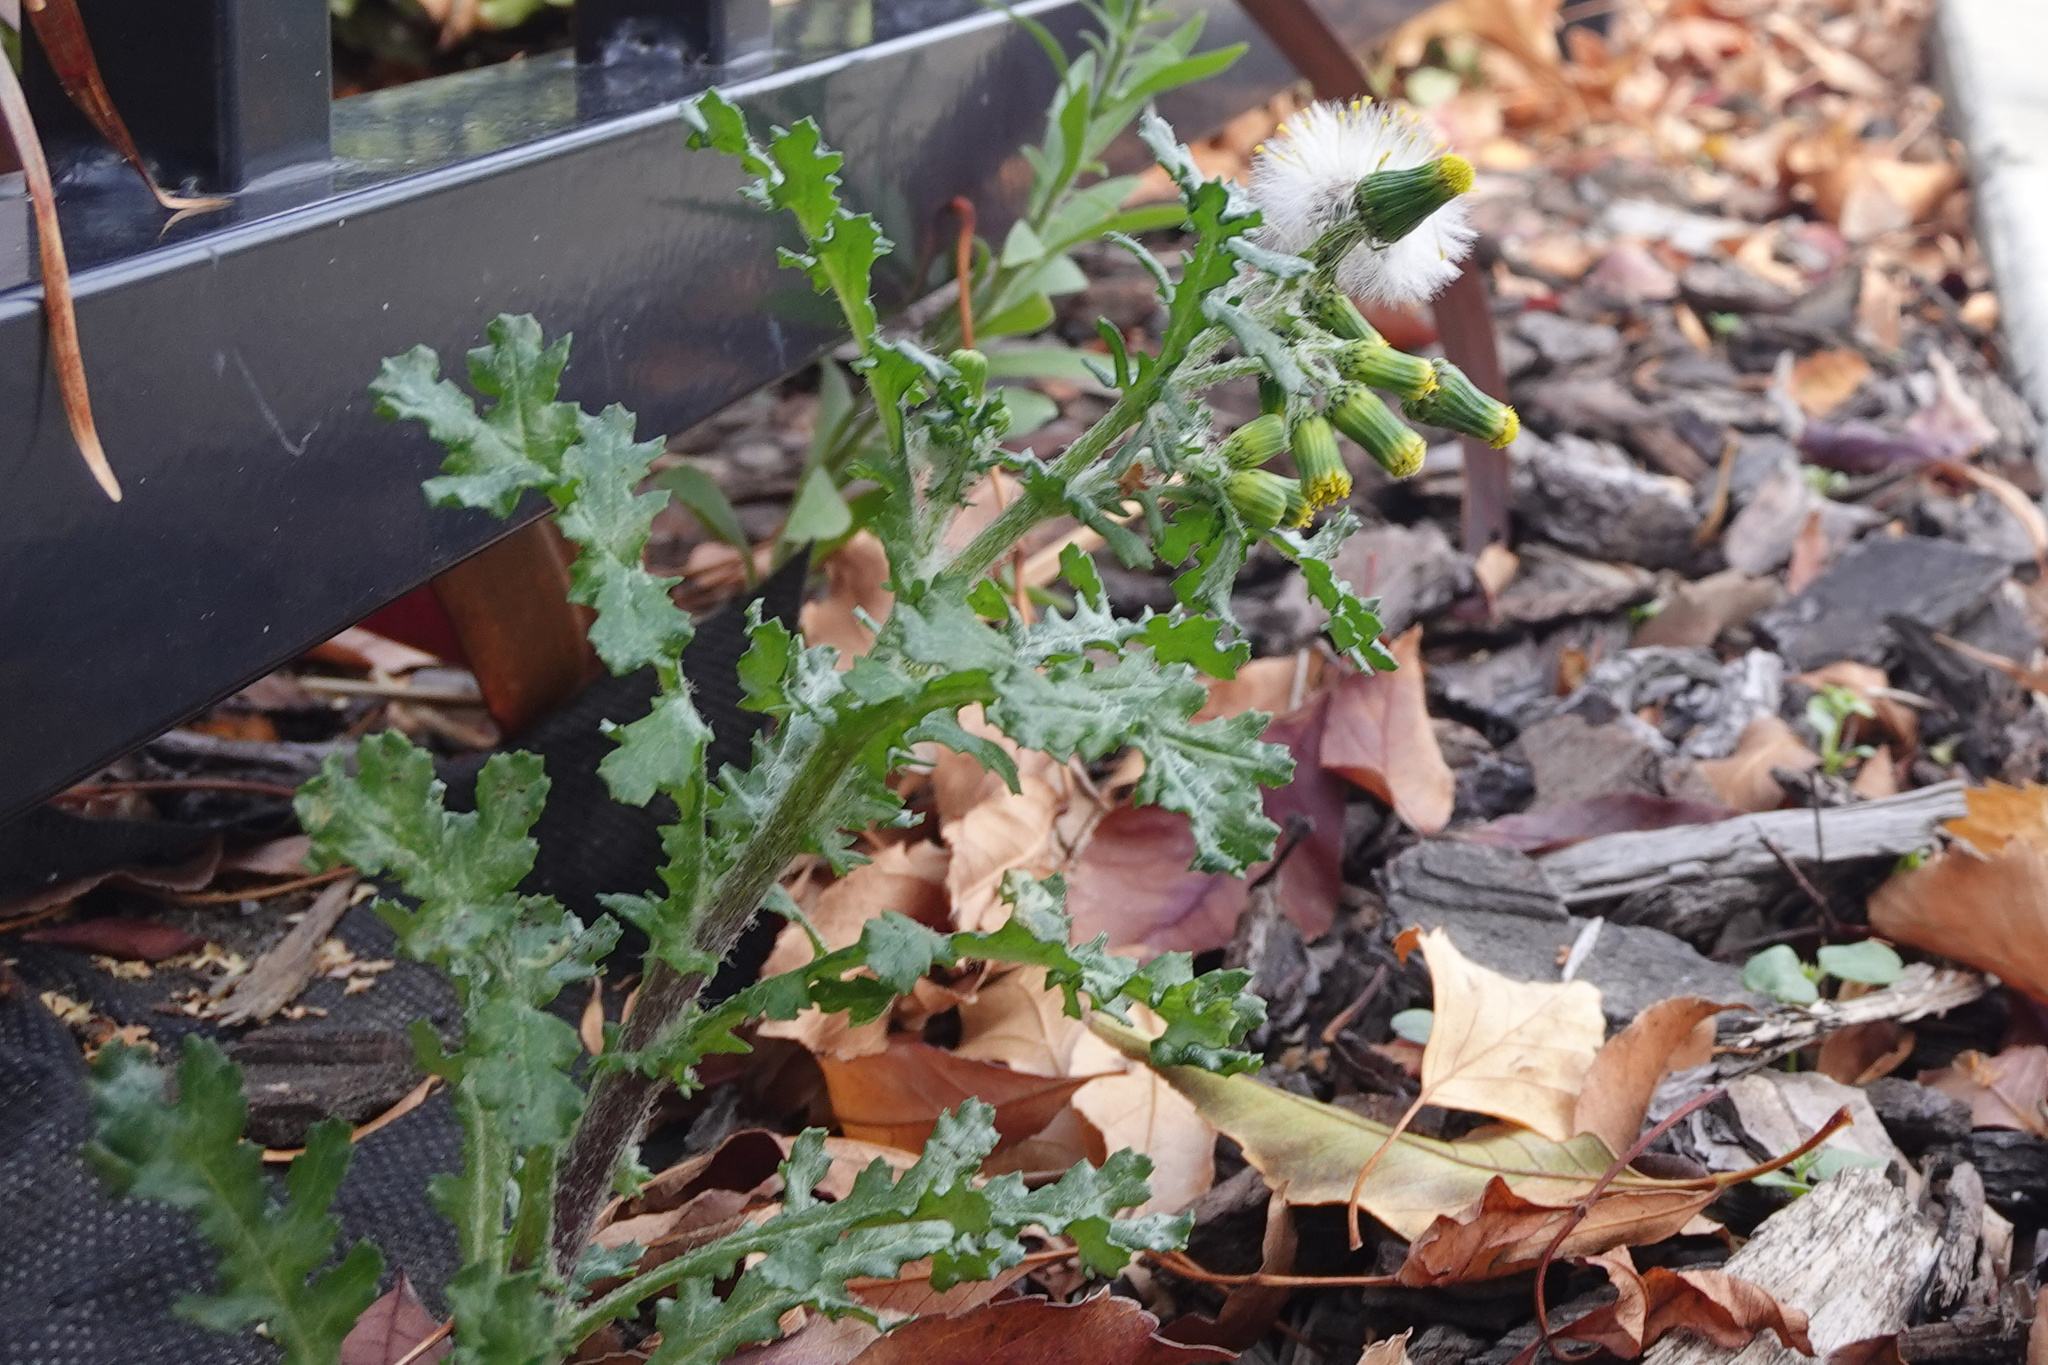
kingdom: Plantae
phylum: Tracheophyta
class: Magnoliopsida
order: Asterales
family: Asteraceae
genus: Senecio
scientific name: Senecio vulgaris
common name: Old-man-in-the-spring
